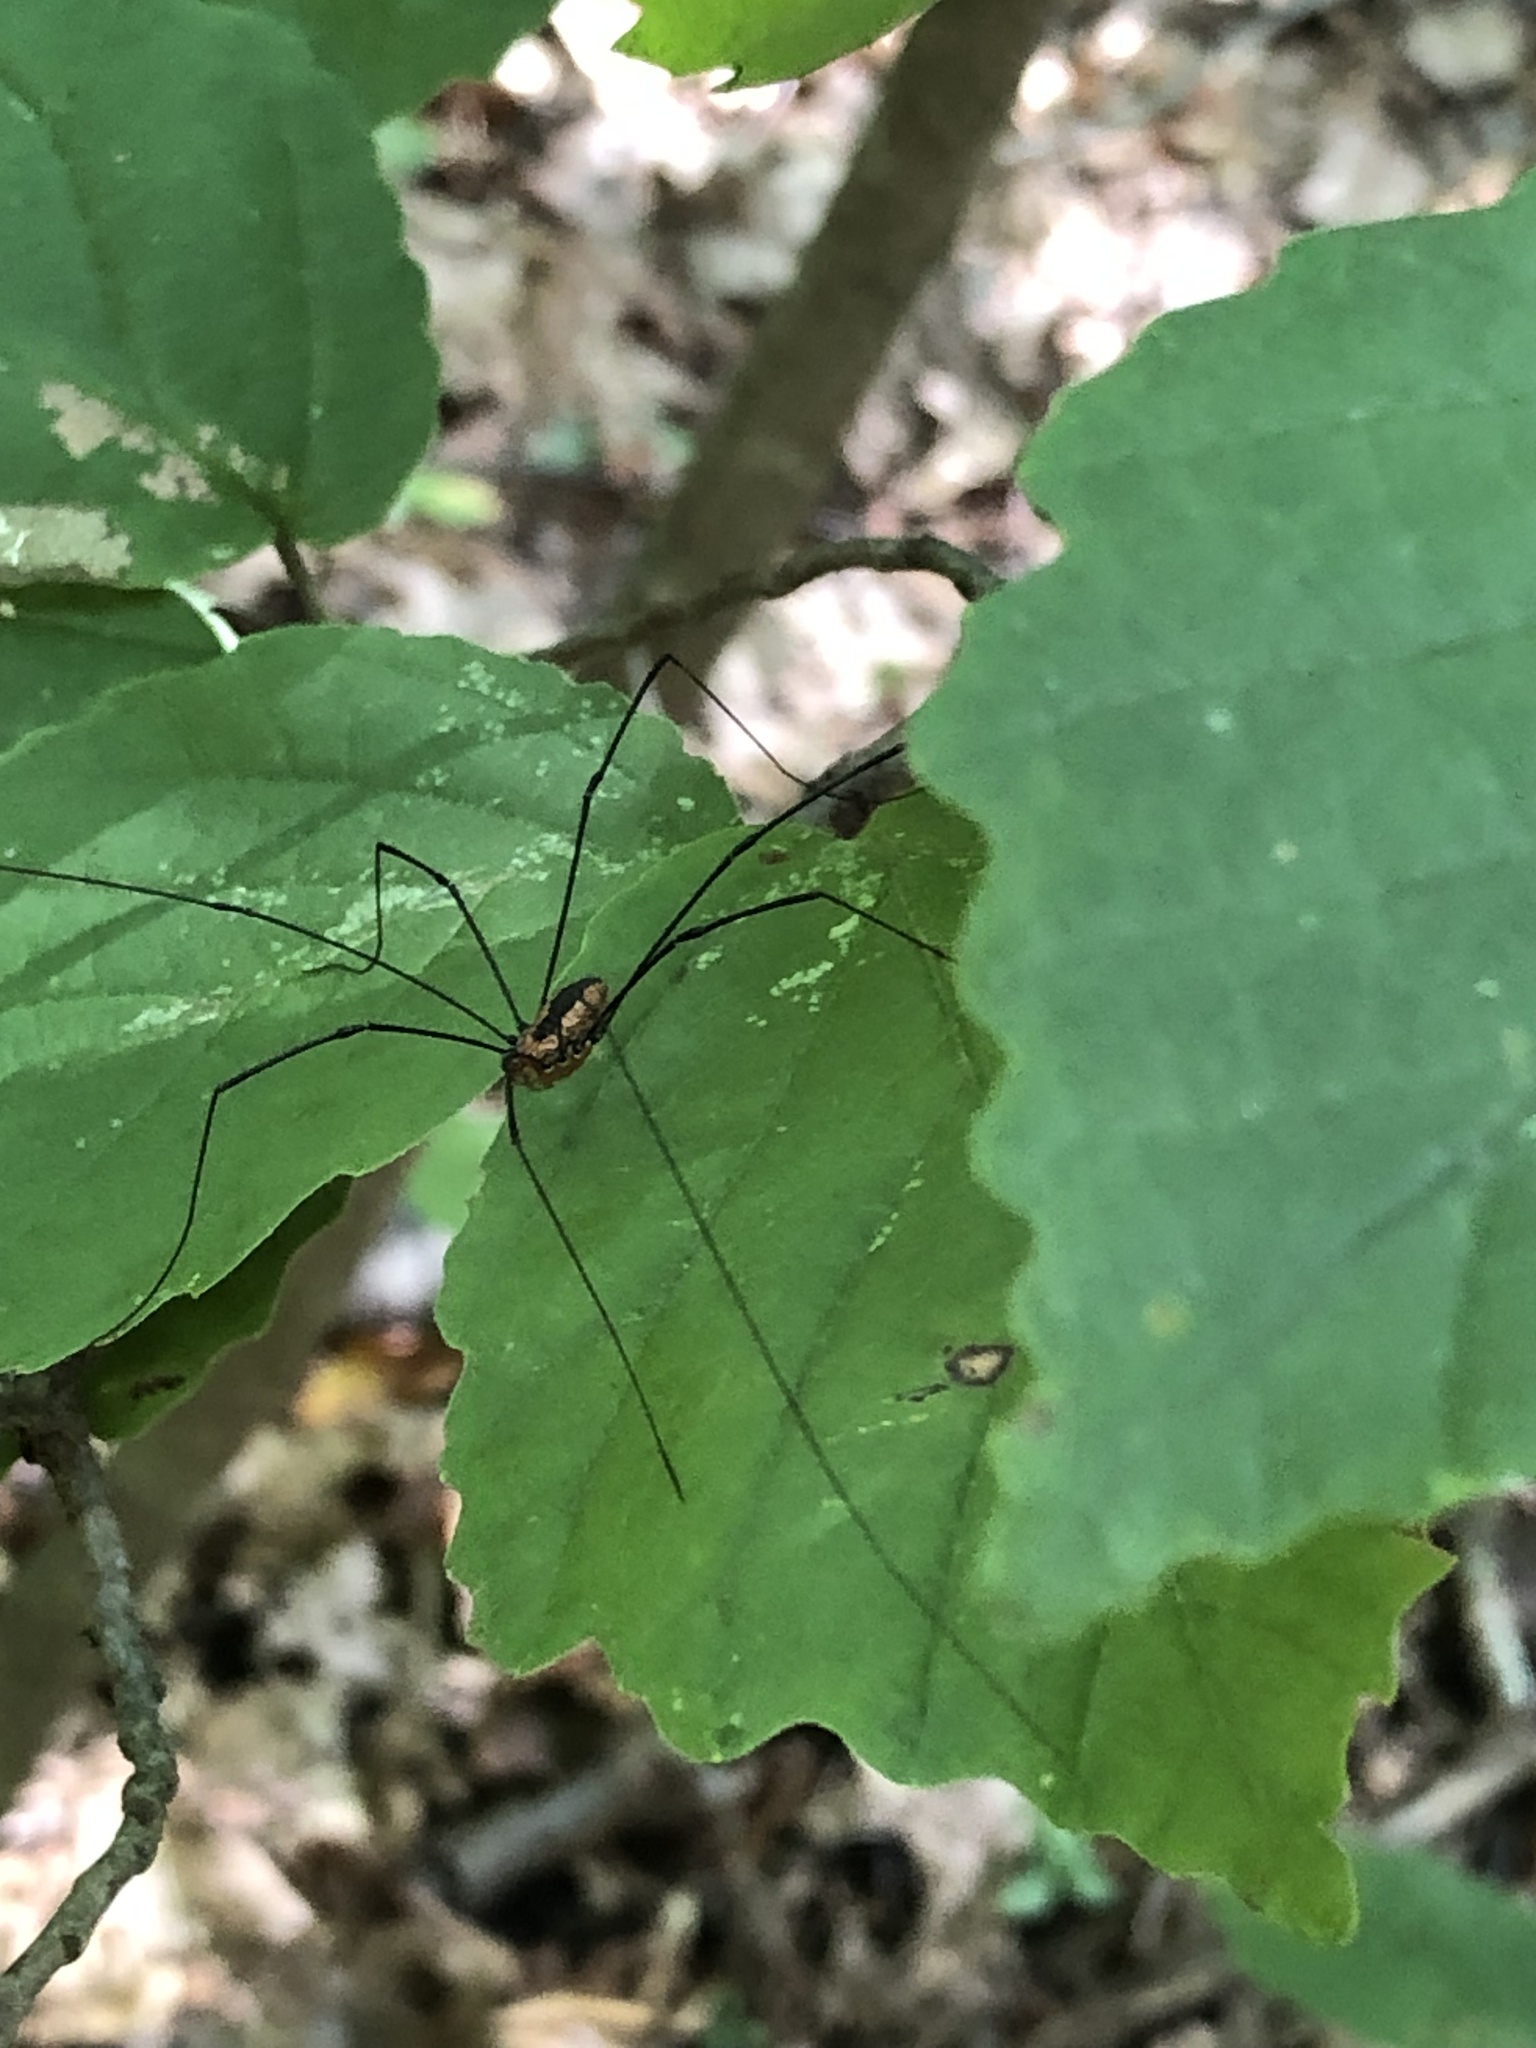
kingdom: Animalia
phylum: Arthropoda
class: Arachnida
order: Opiliones
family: Sclerosomatidae
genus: Leiobunum
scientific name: Leiobunum vittatum
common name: Eastern harvestman
